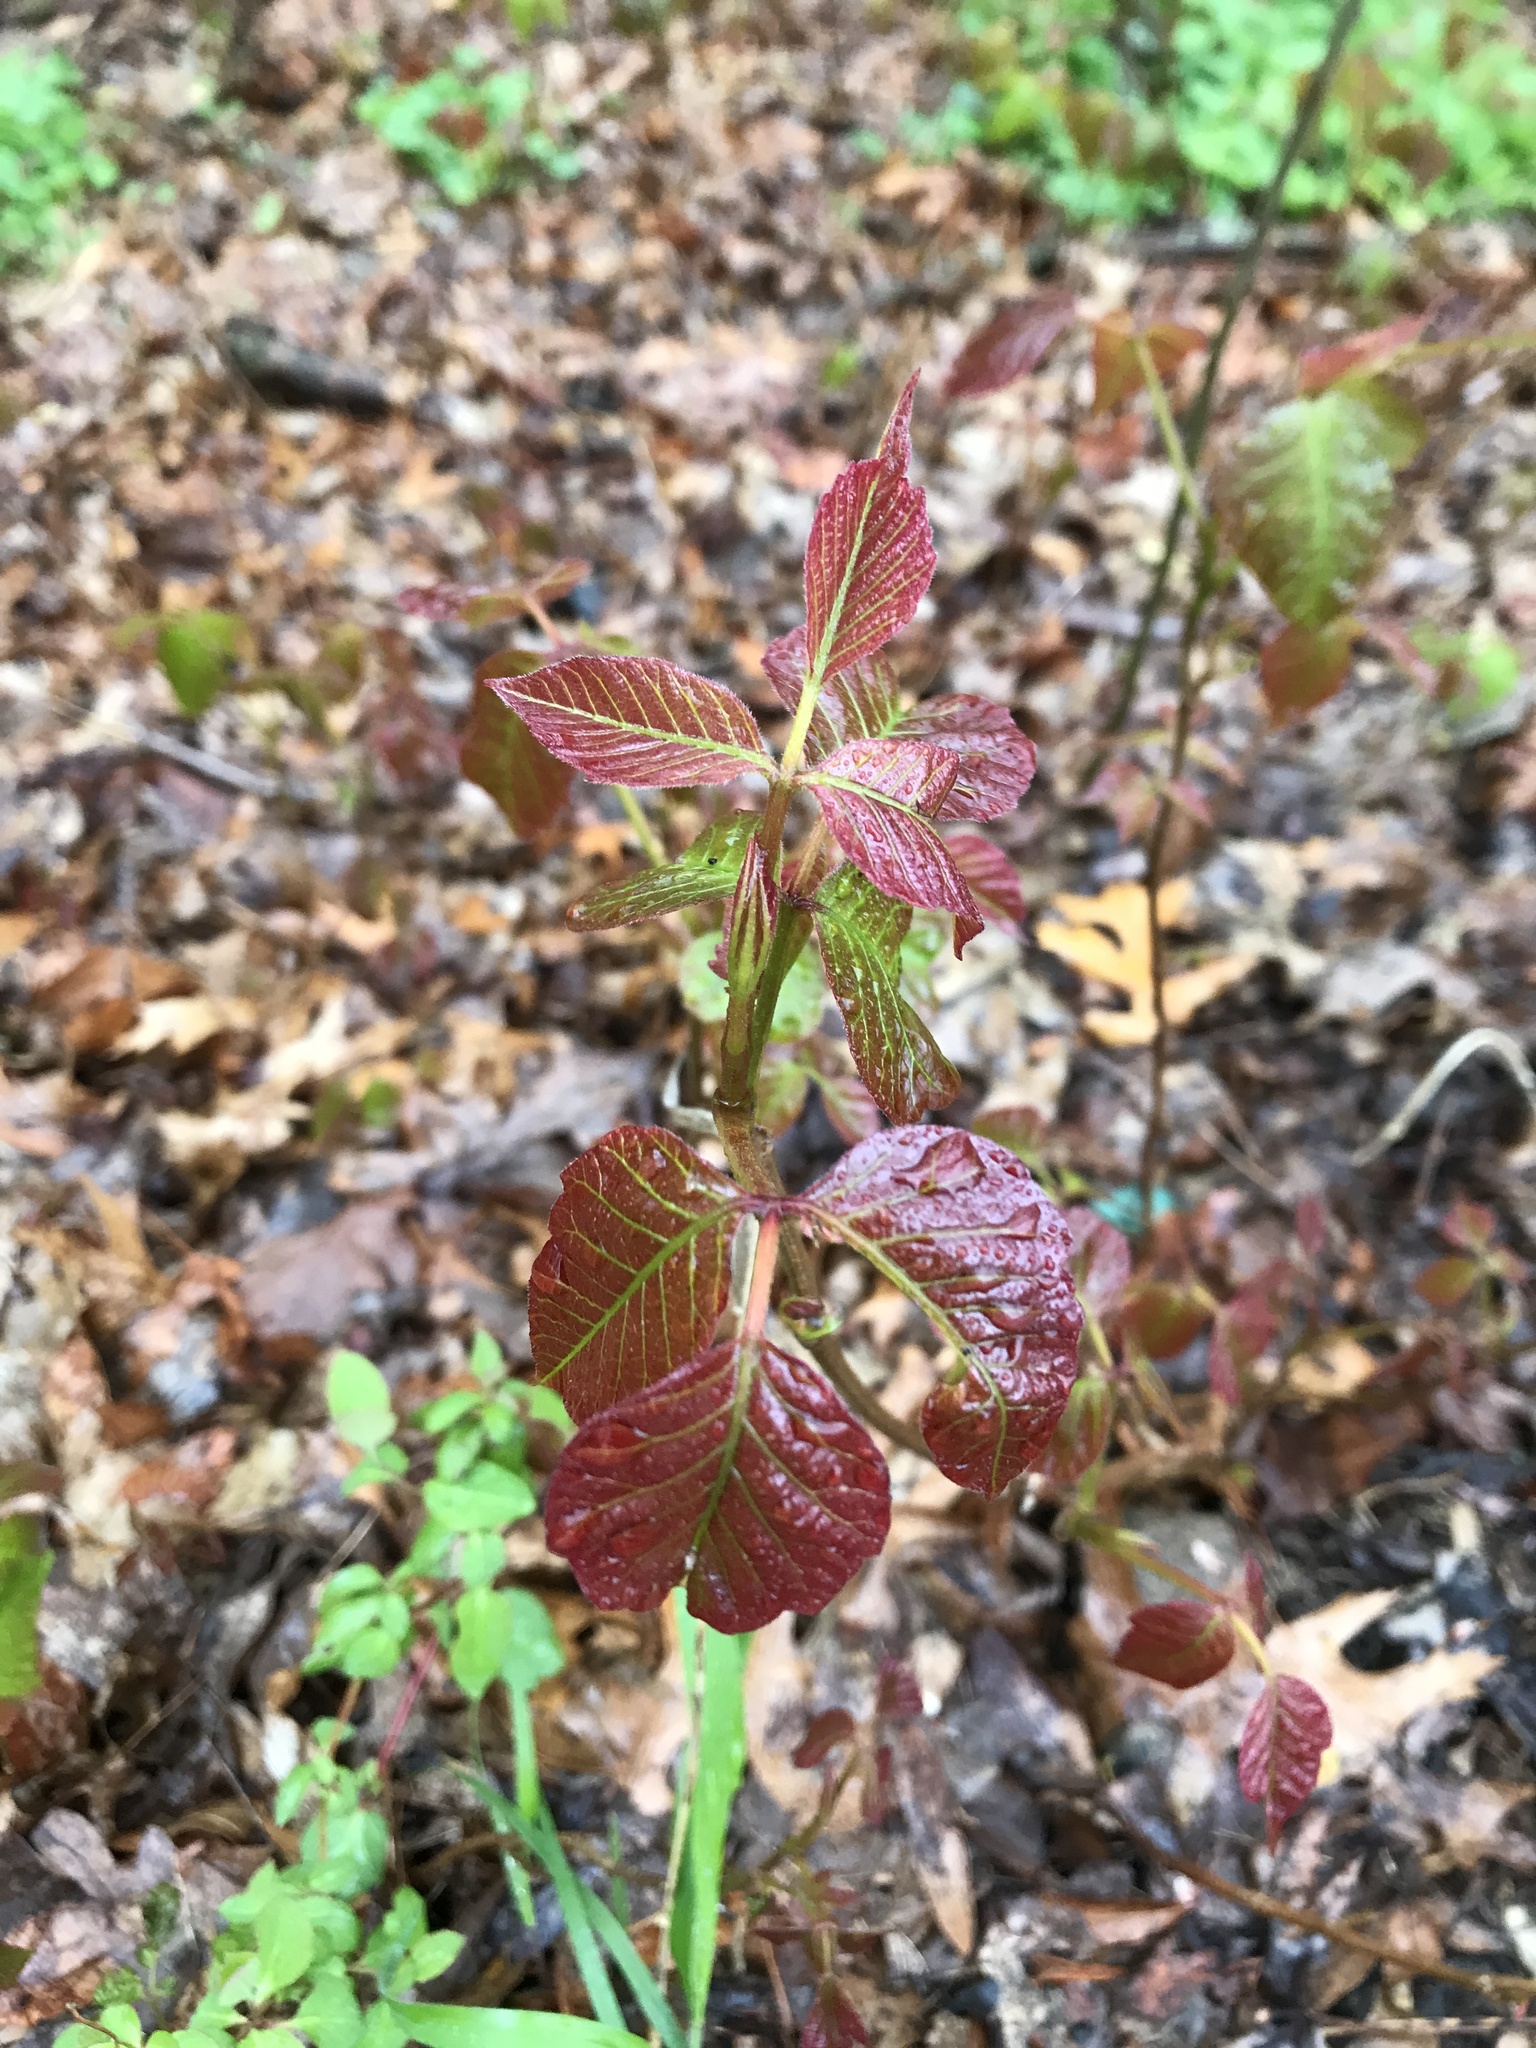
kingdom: Plantae
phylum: Tracheophyta
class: Magnoliopsida
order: Sapindales
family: Anacardiaceae
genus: Toxicodendron
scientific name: Toxicodendron radicans
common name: Poison ivy
